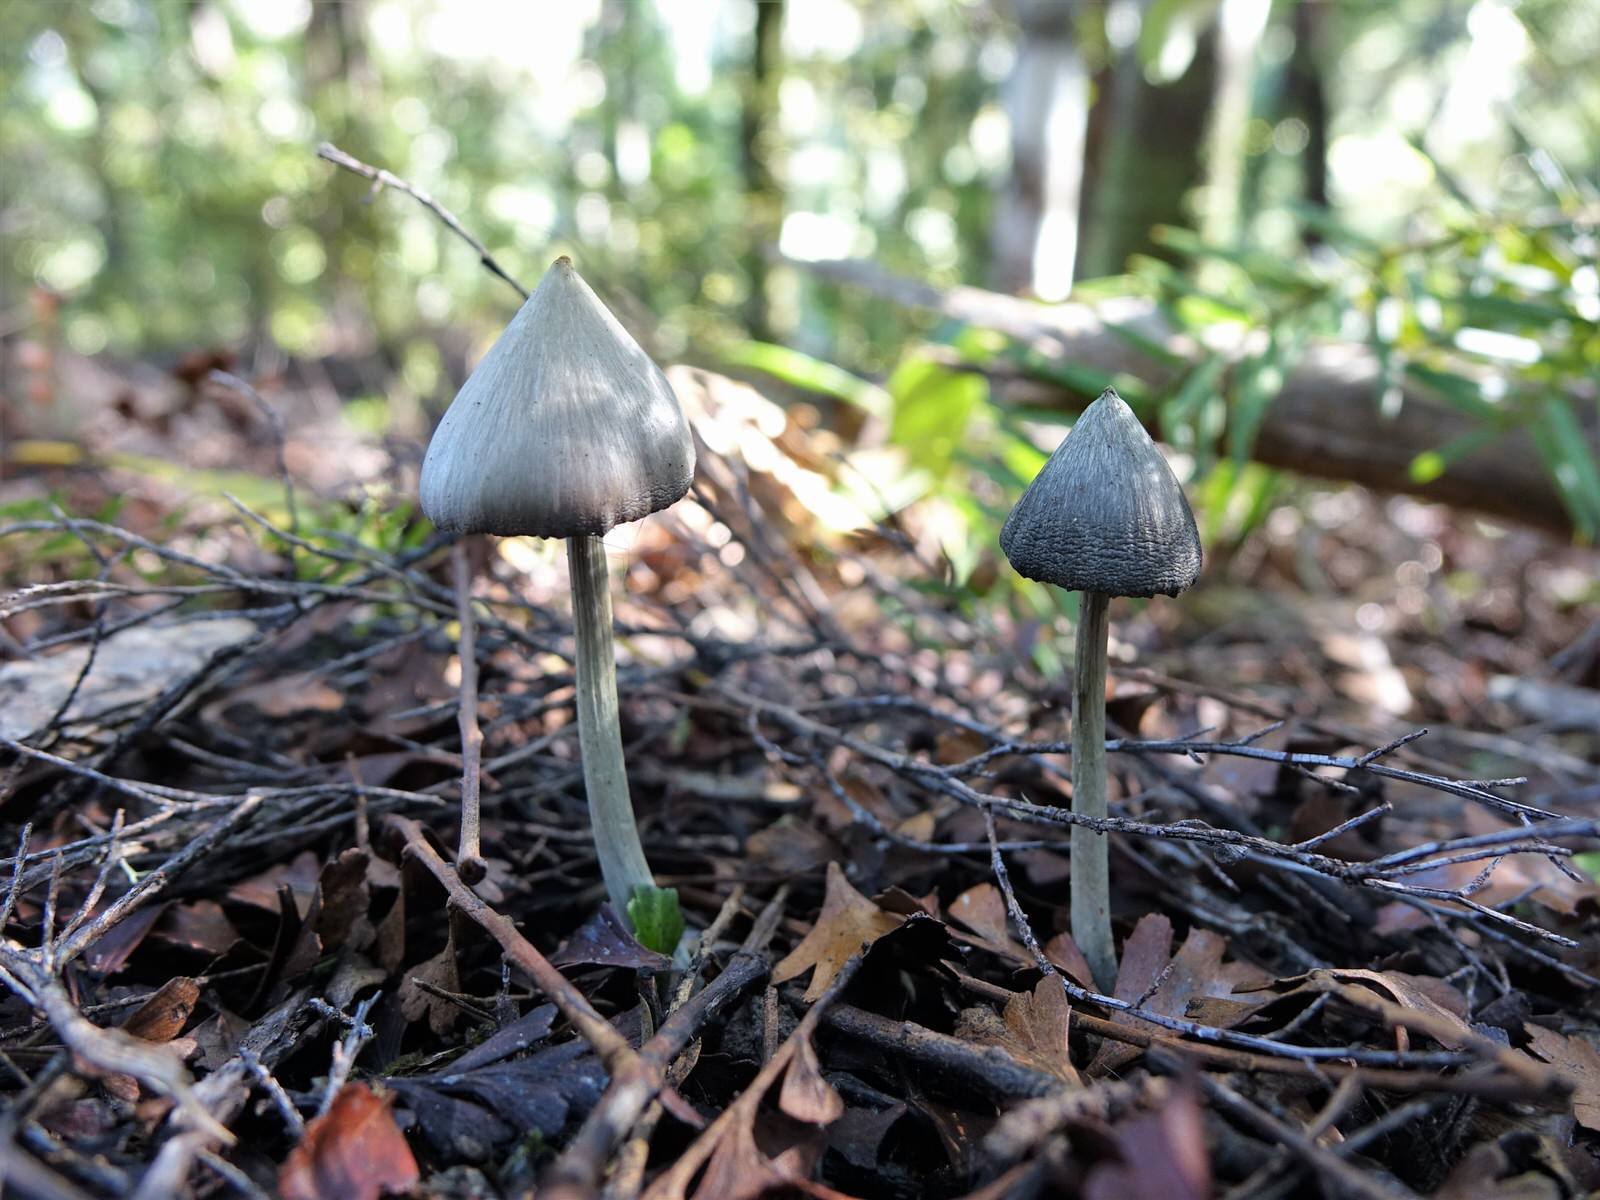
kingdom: Fungi
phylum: Basidiomycota
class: Agaricomycetes
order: Agaricales
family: Entolomataceae
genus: Entoloma
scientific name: Entoloma canoconicum
